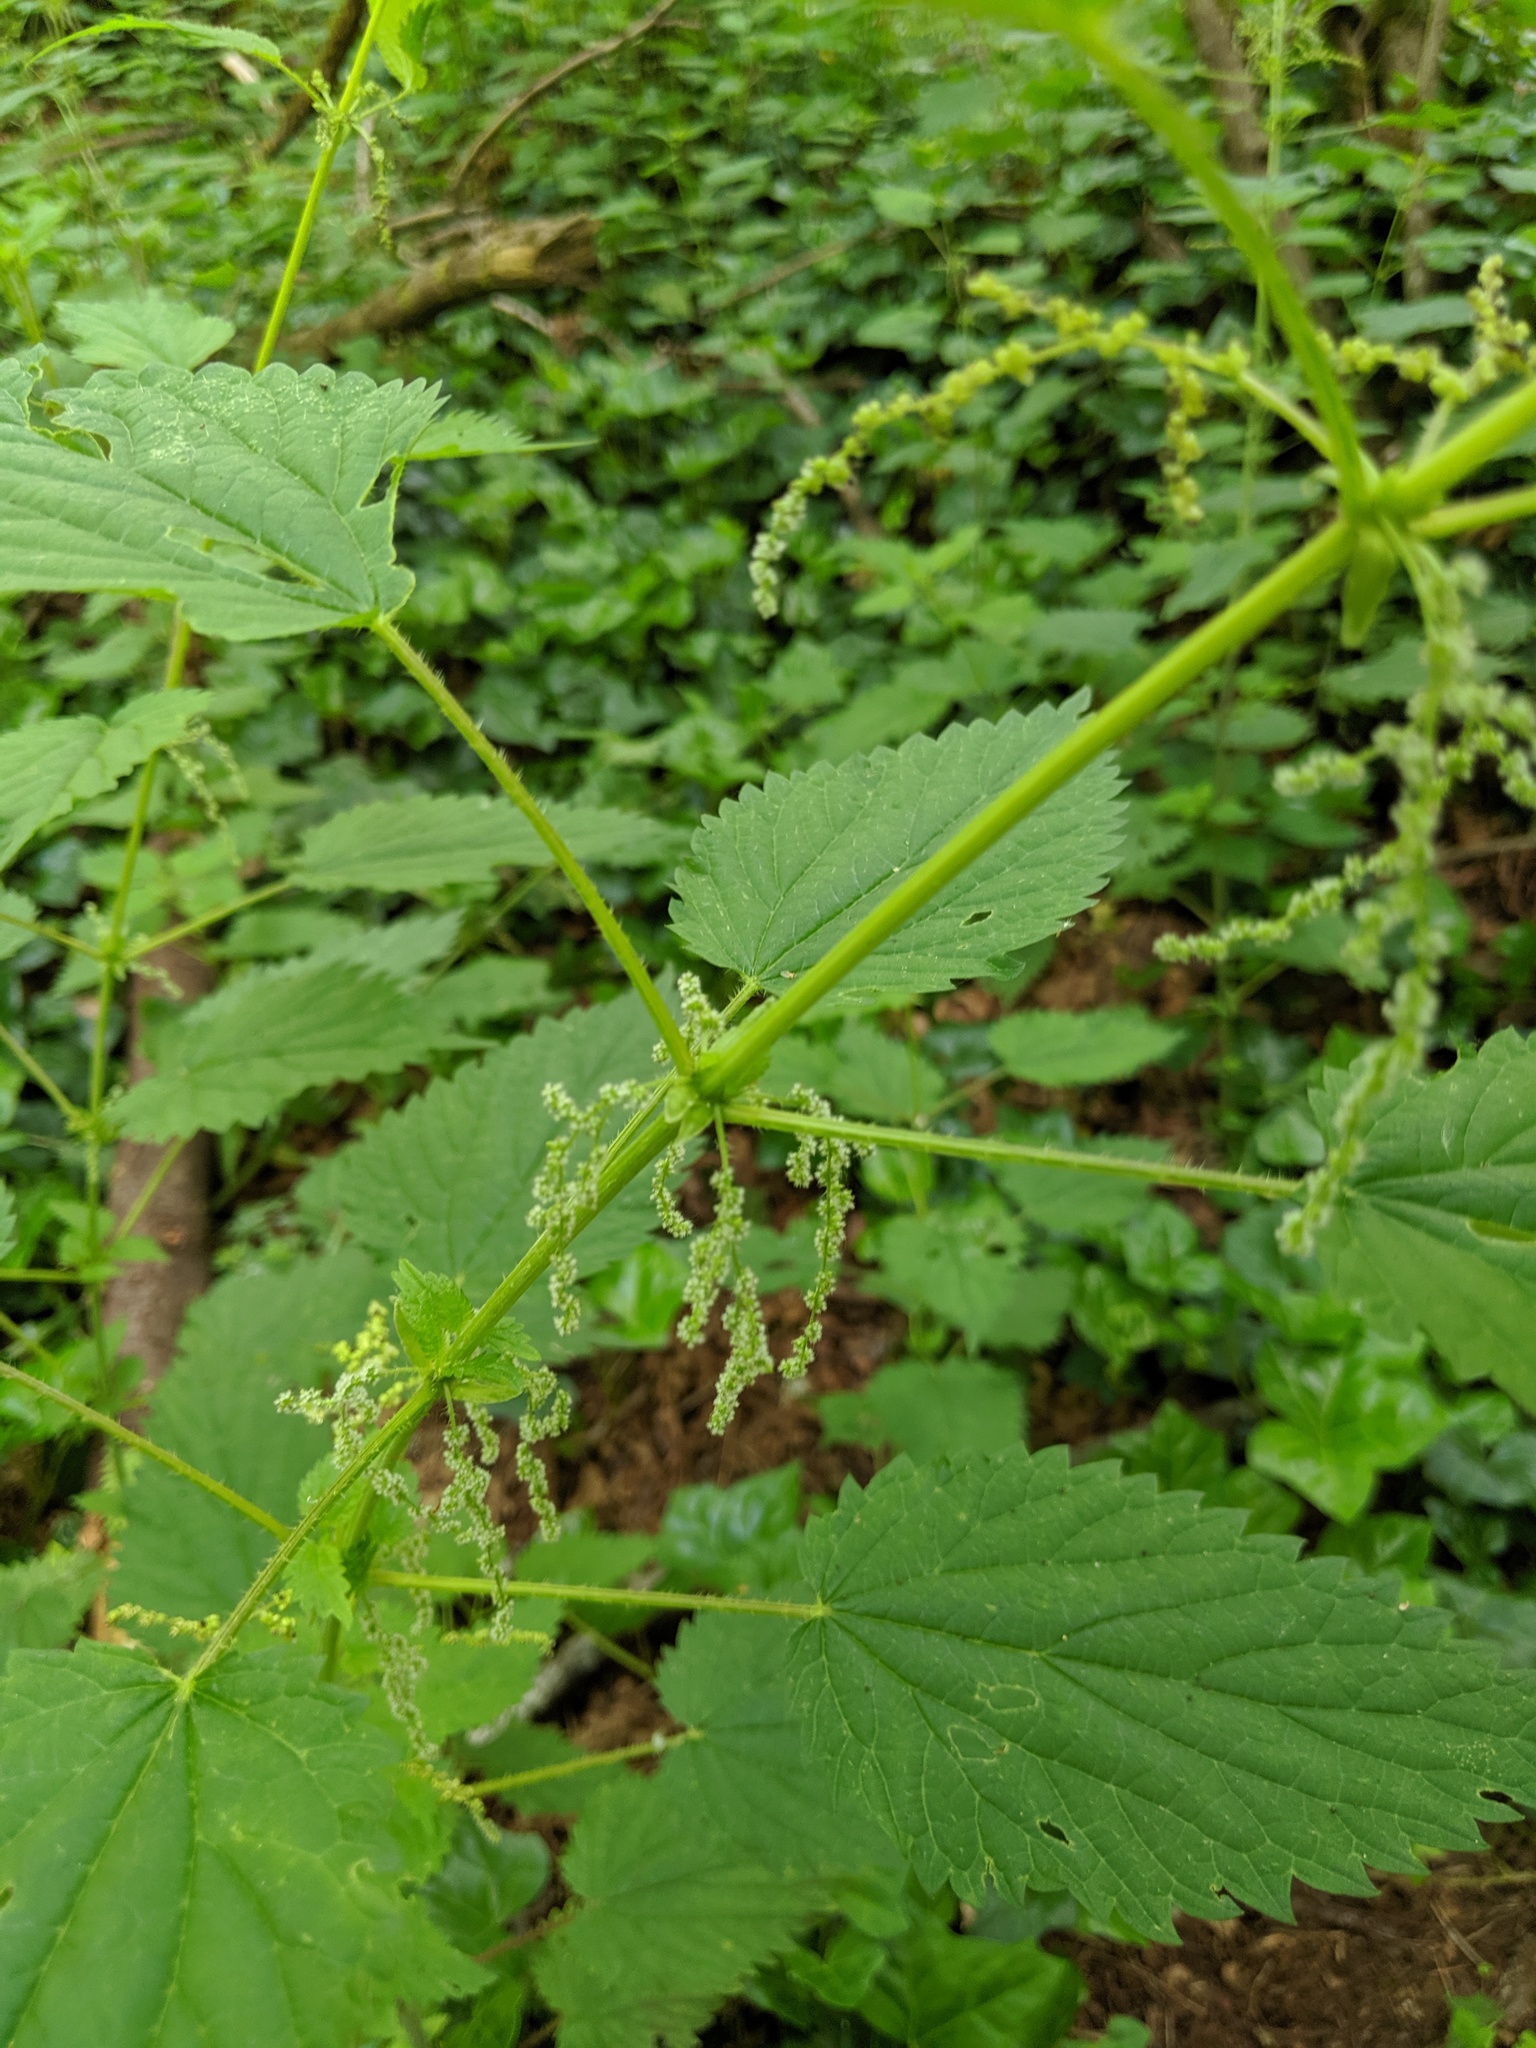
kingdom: Plantae
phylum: Tracheophyta
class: Magnoliopsida
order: Rosales
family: Urticaceae
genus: Urtica
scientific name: Urtica dioica
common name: Common nettle
